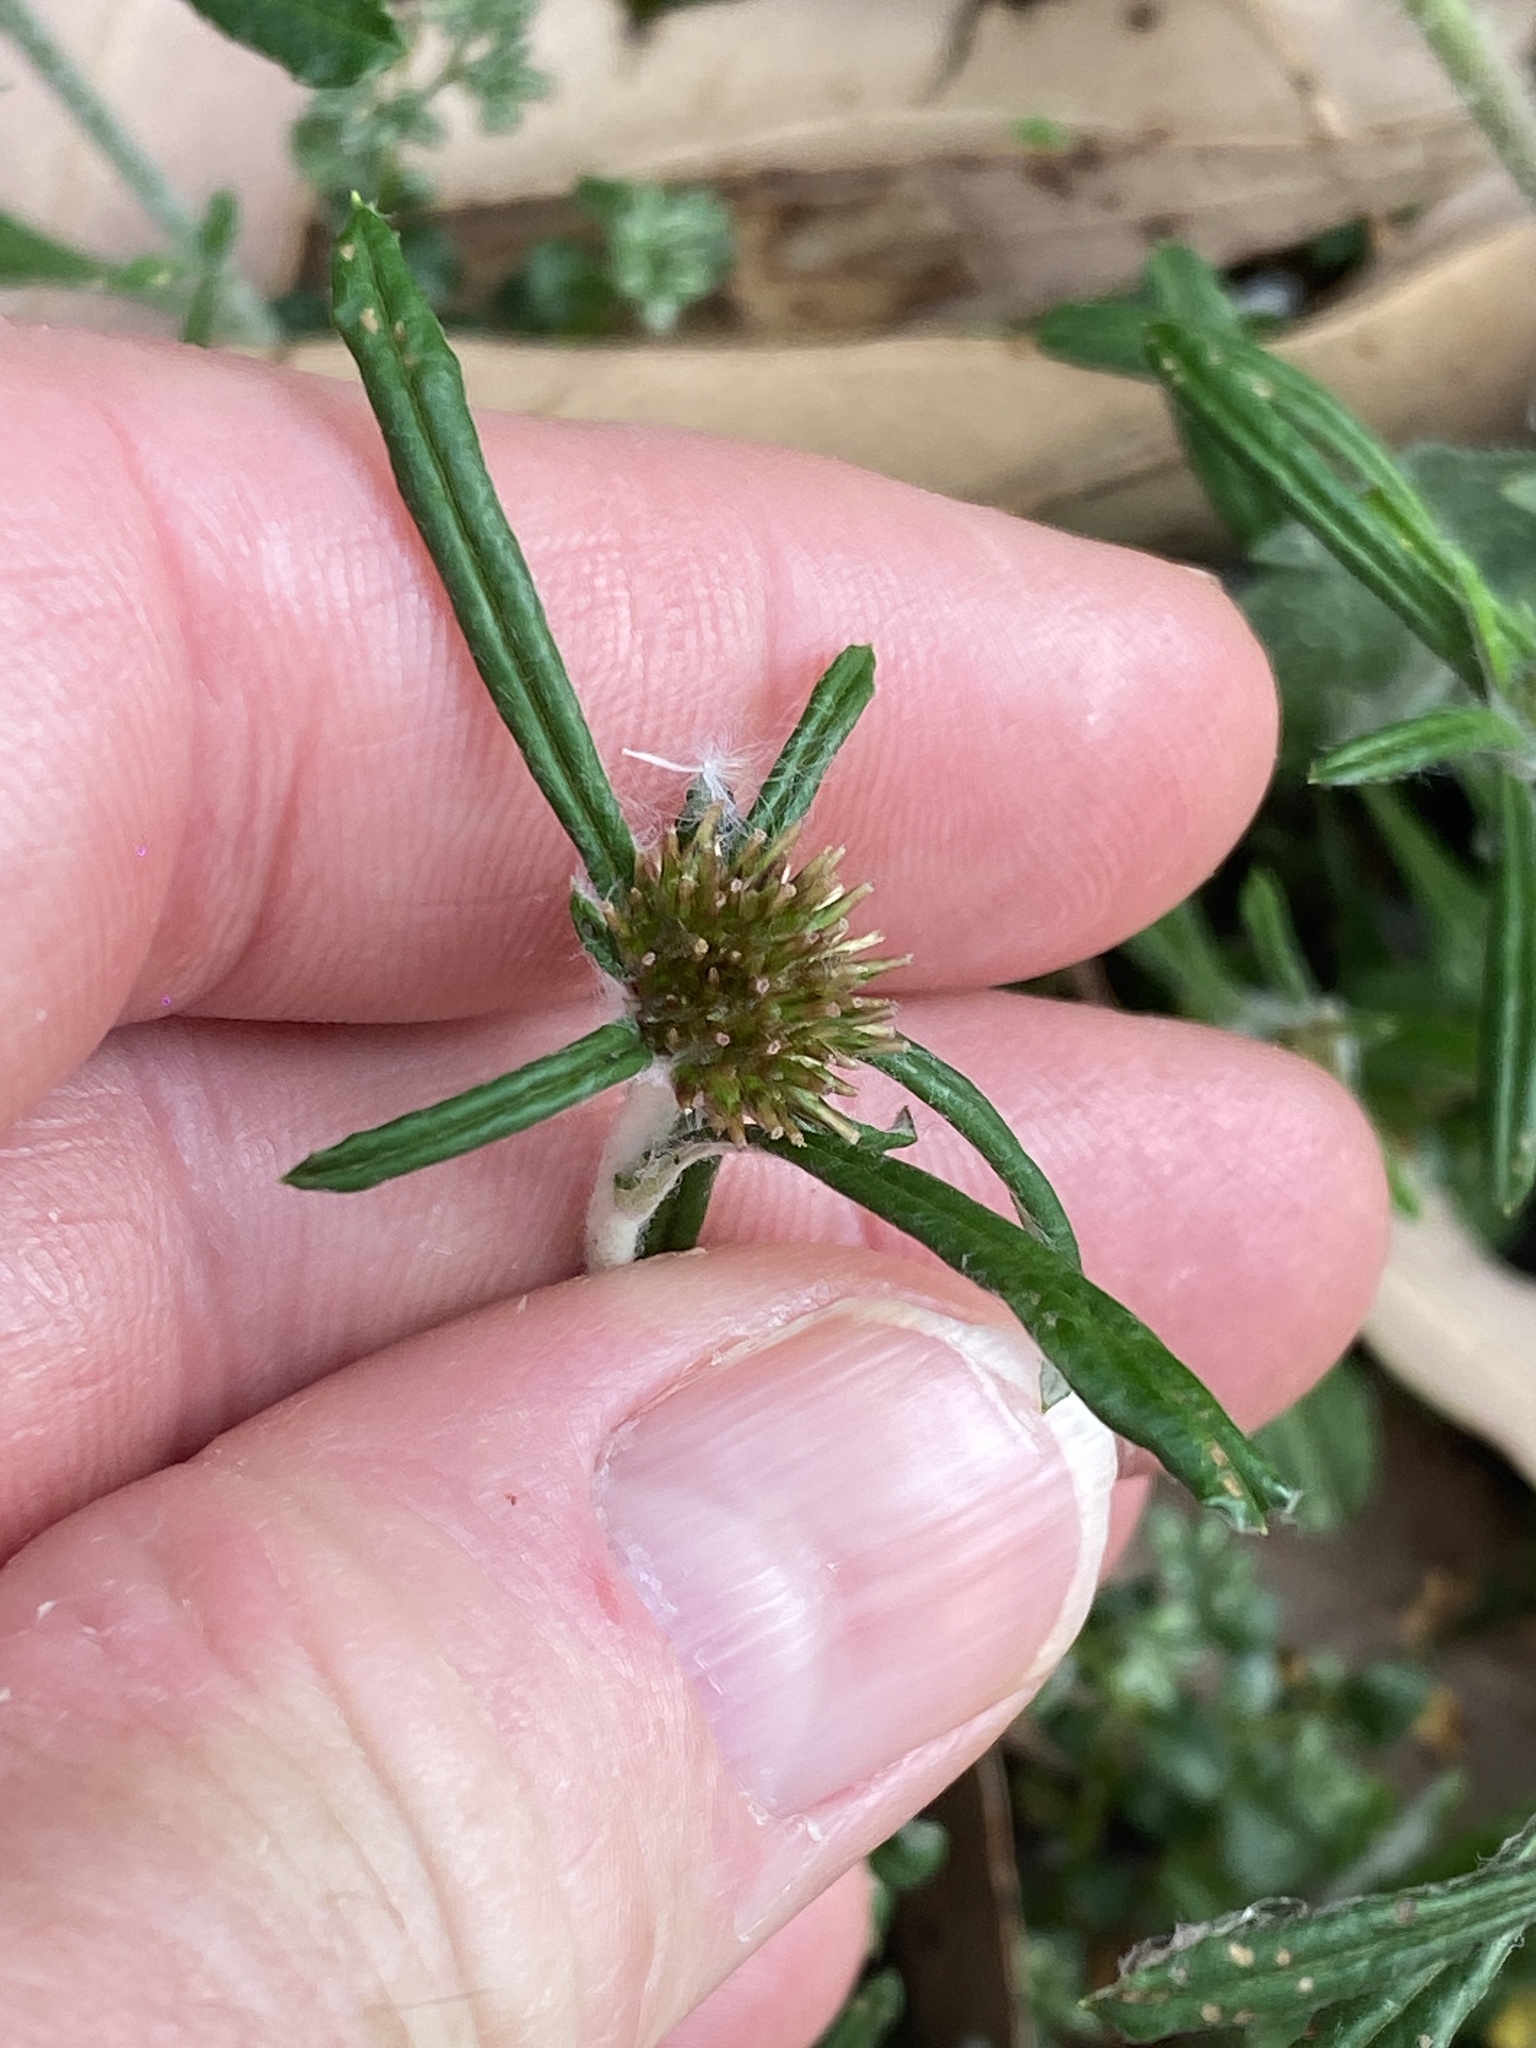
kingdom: Plantae
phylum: Tracheophyta
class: Magnoliopsida
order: Asterales
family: Asteraceae
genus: Euchiton
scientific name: Euchiton sphaericus
